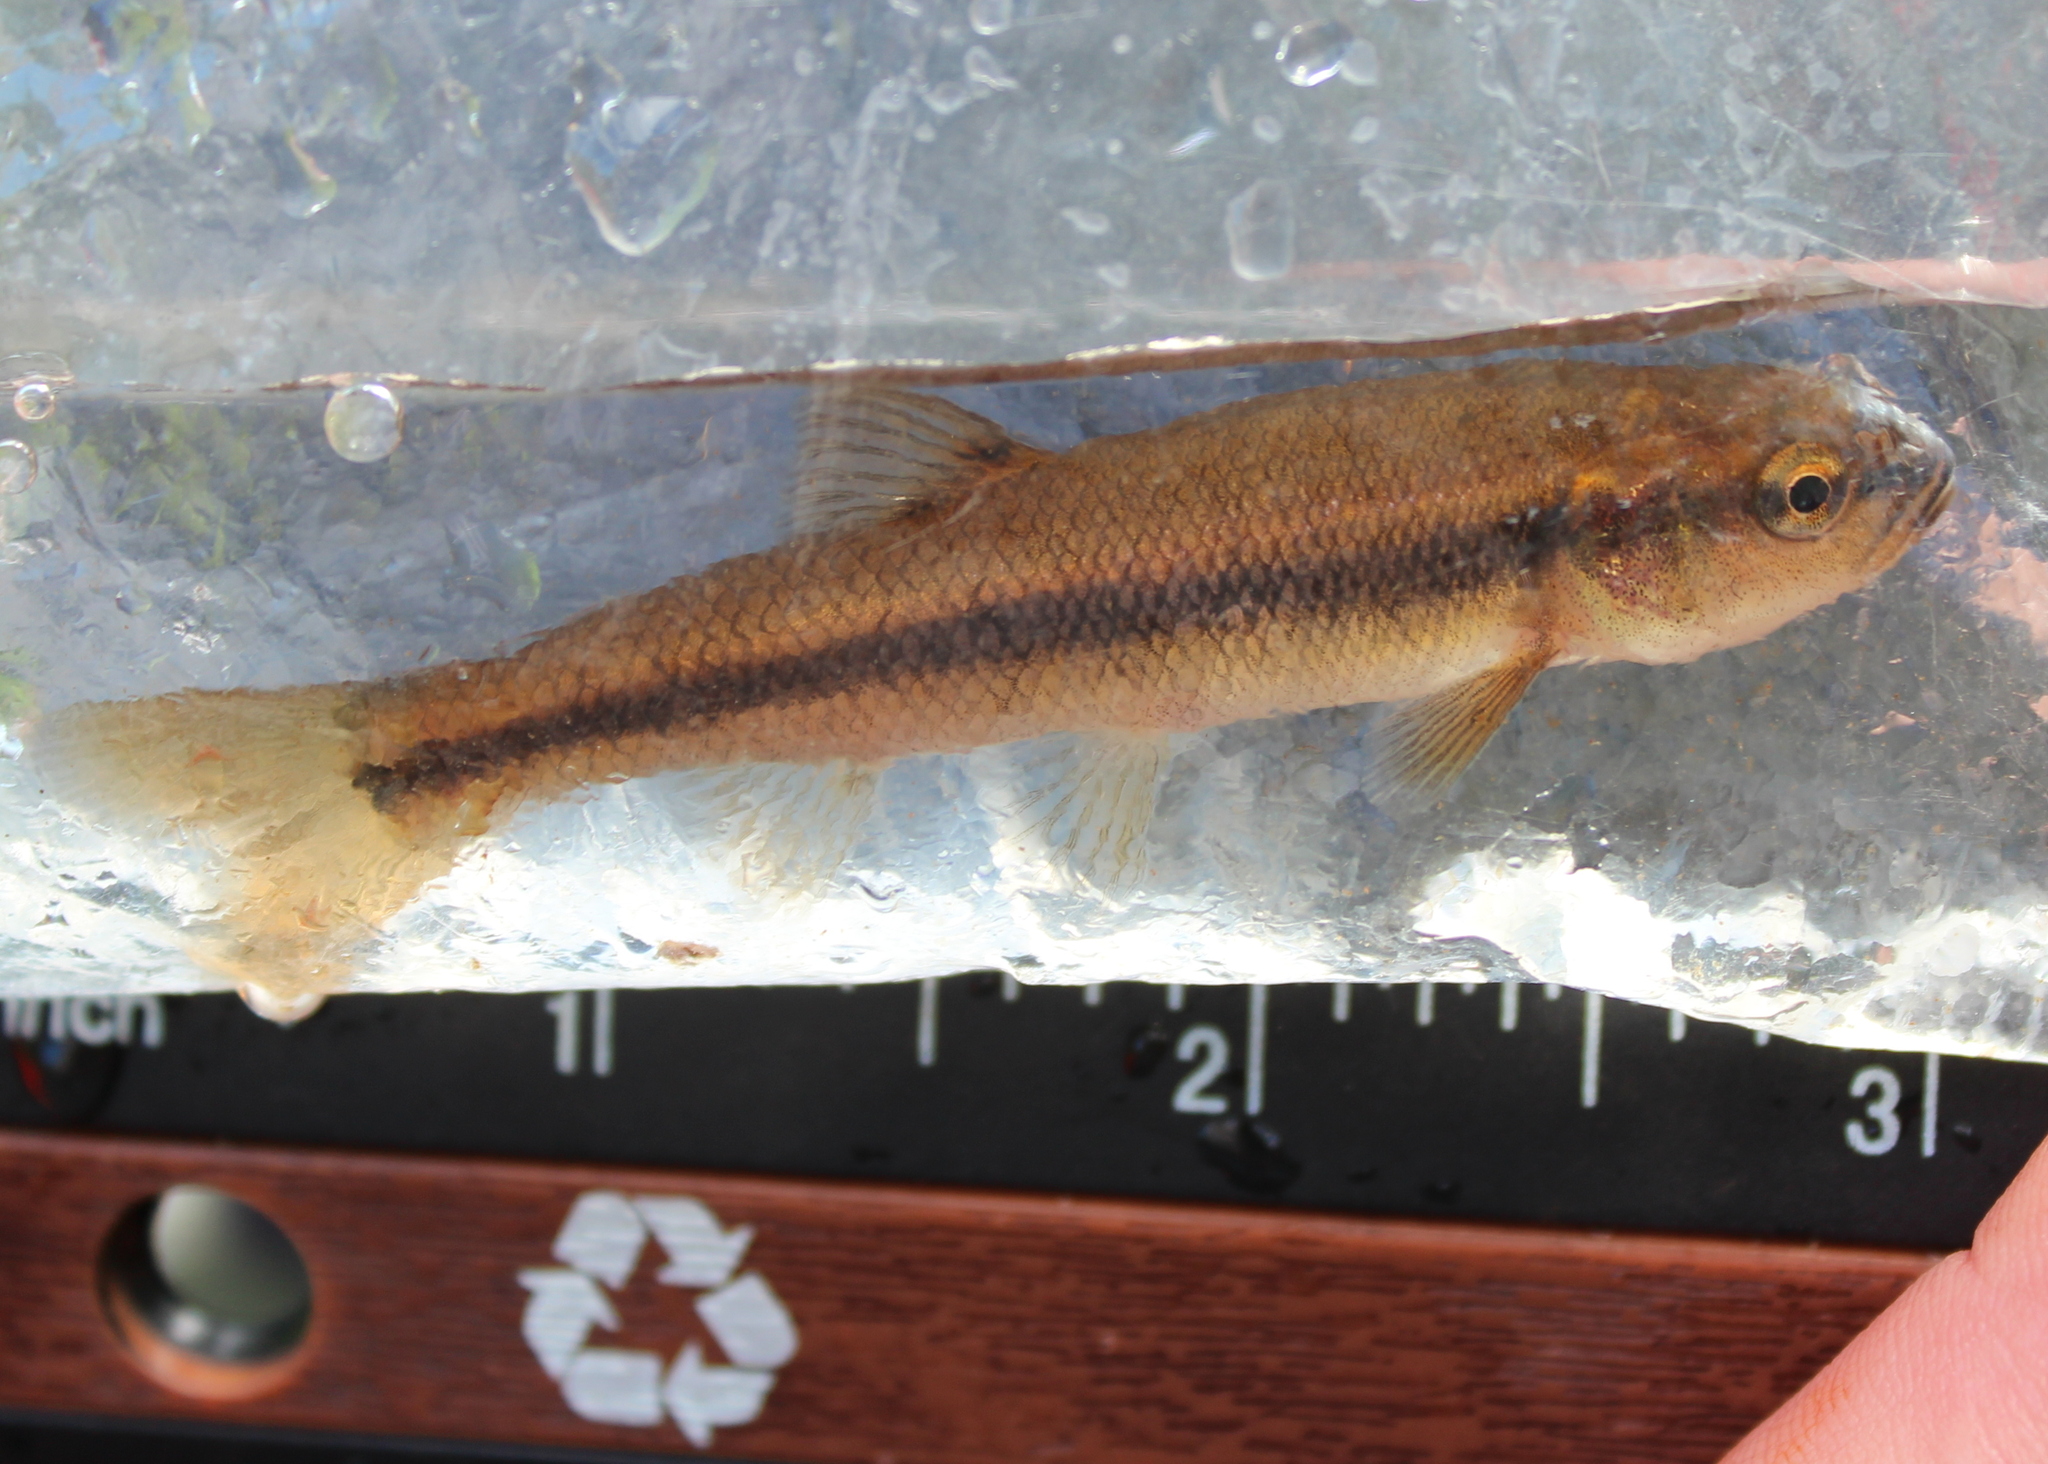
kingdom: Animalia
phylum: Chordata
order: Cypriniformes
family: Cyprinidae
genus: Semotilus
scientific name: Semotilus atromaculatus
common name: Creek chub
